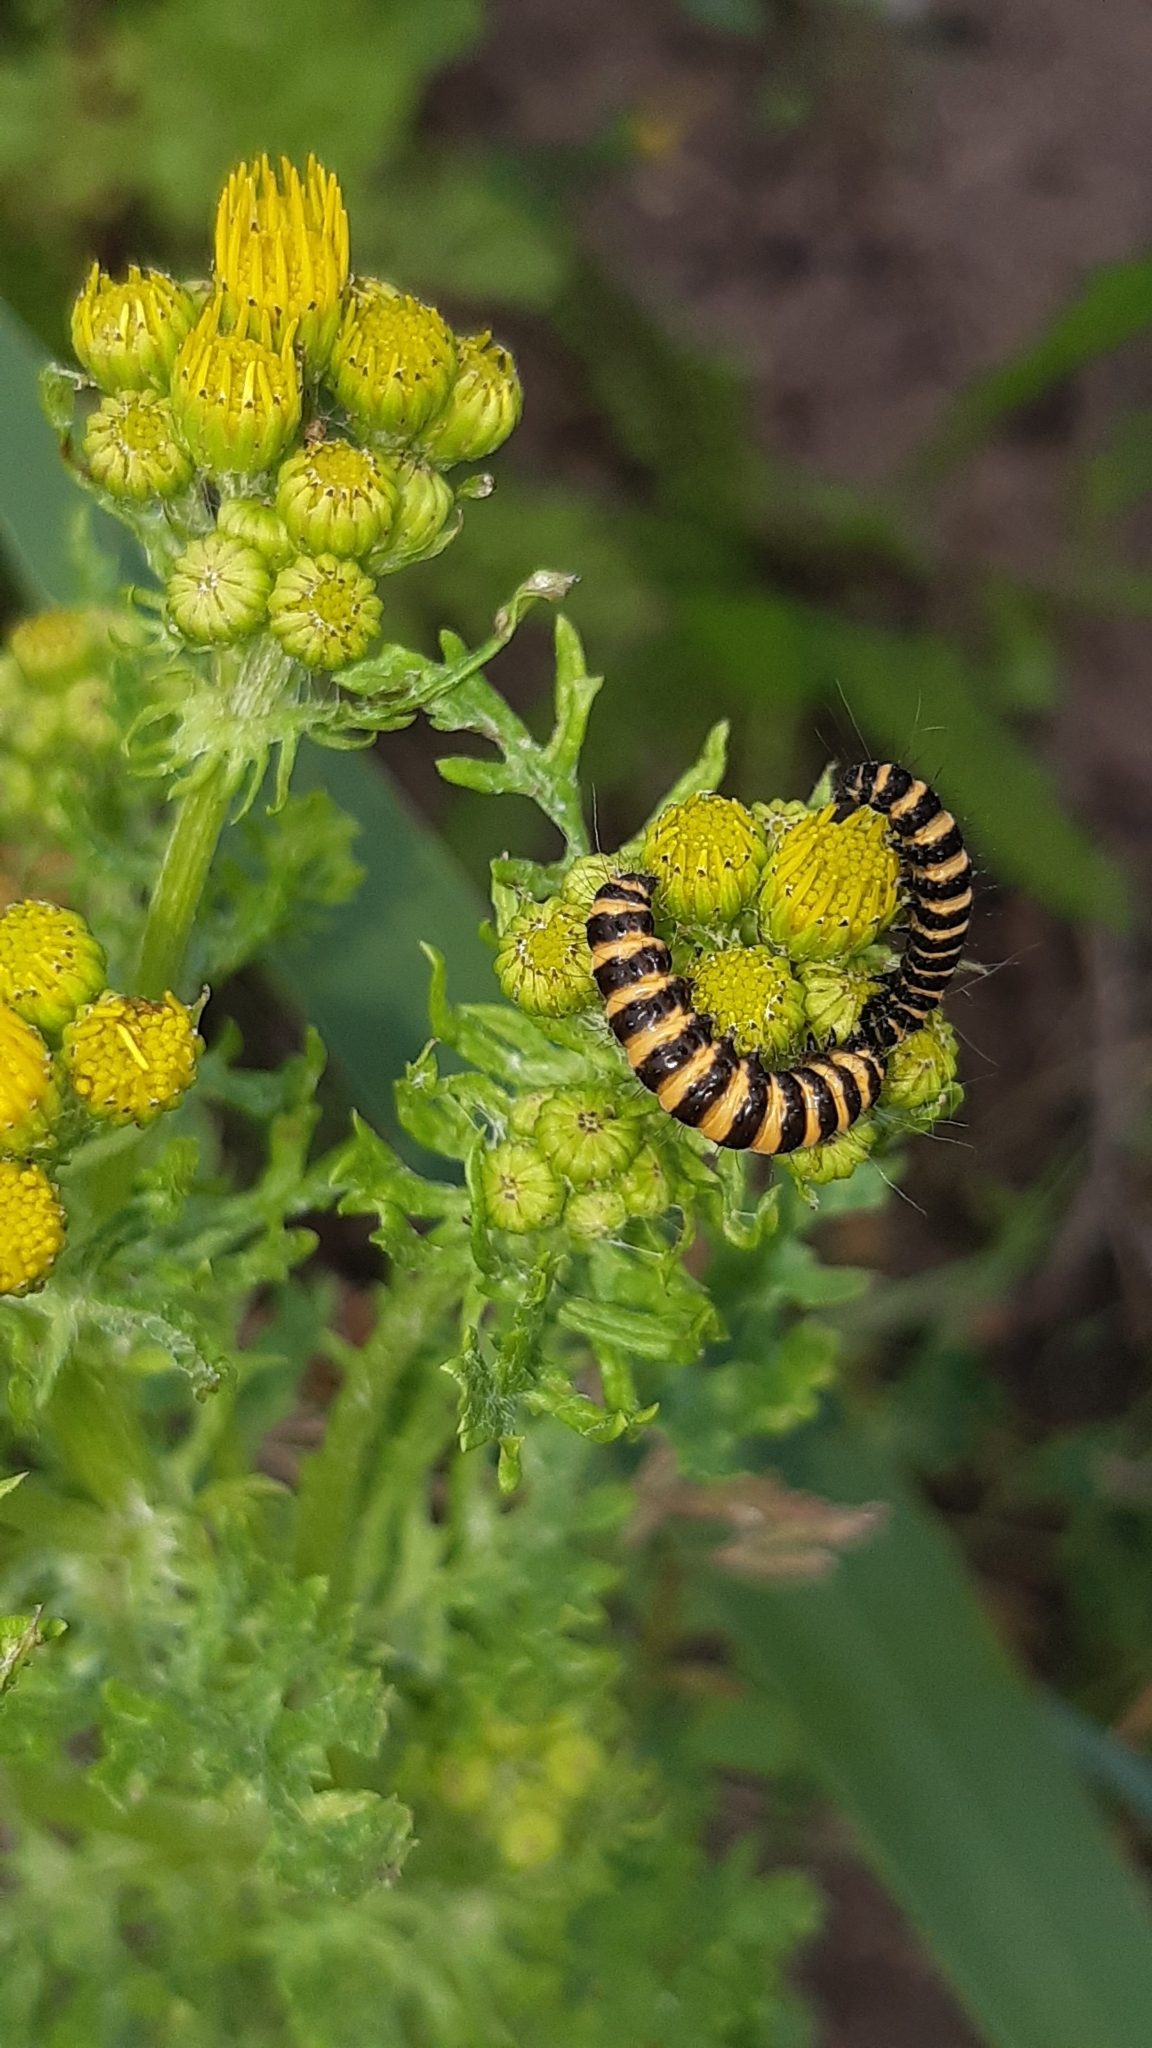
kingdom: Animalia
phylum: Arthropoda
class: Insecta
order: Lepidoptera
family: Erebidae
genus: Tyria
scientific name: Tyria jacobaeae
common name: Cinnabar
